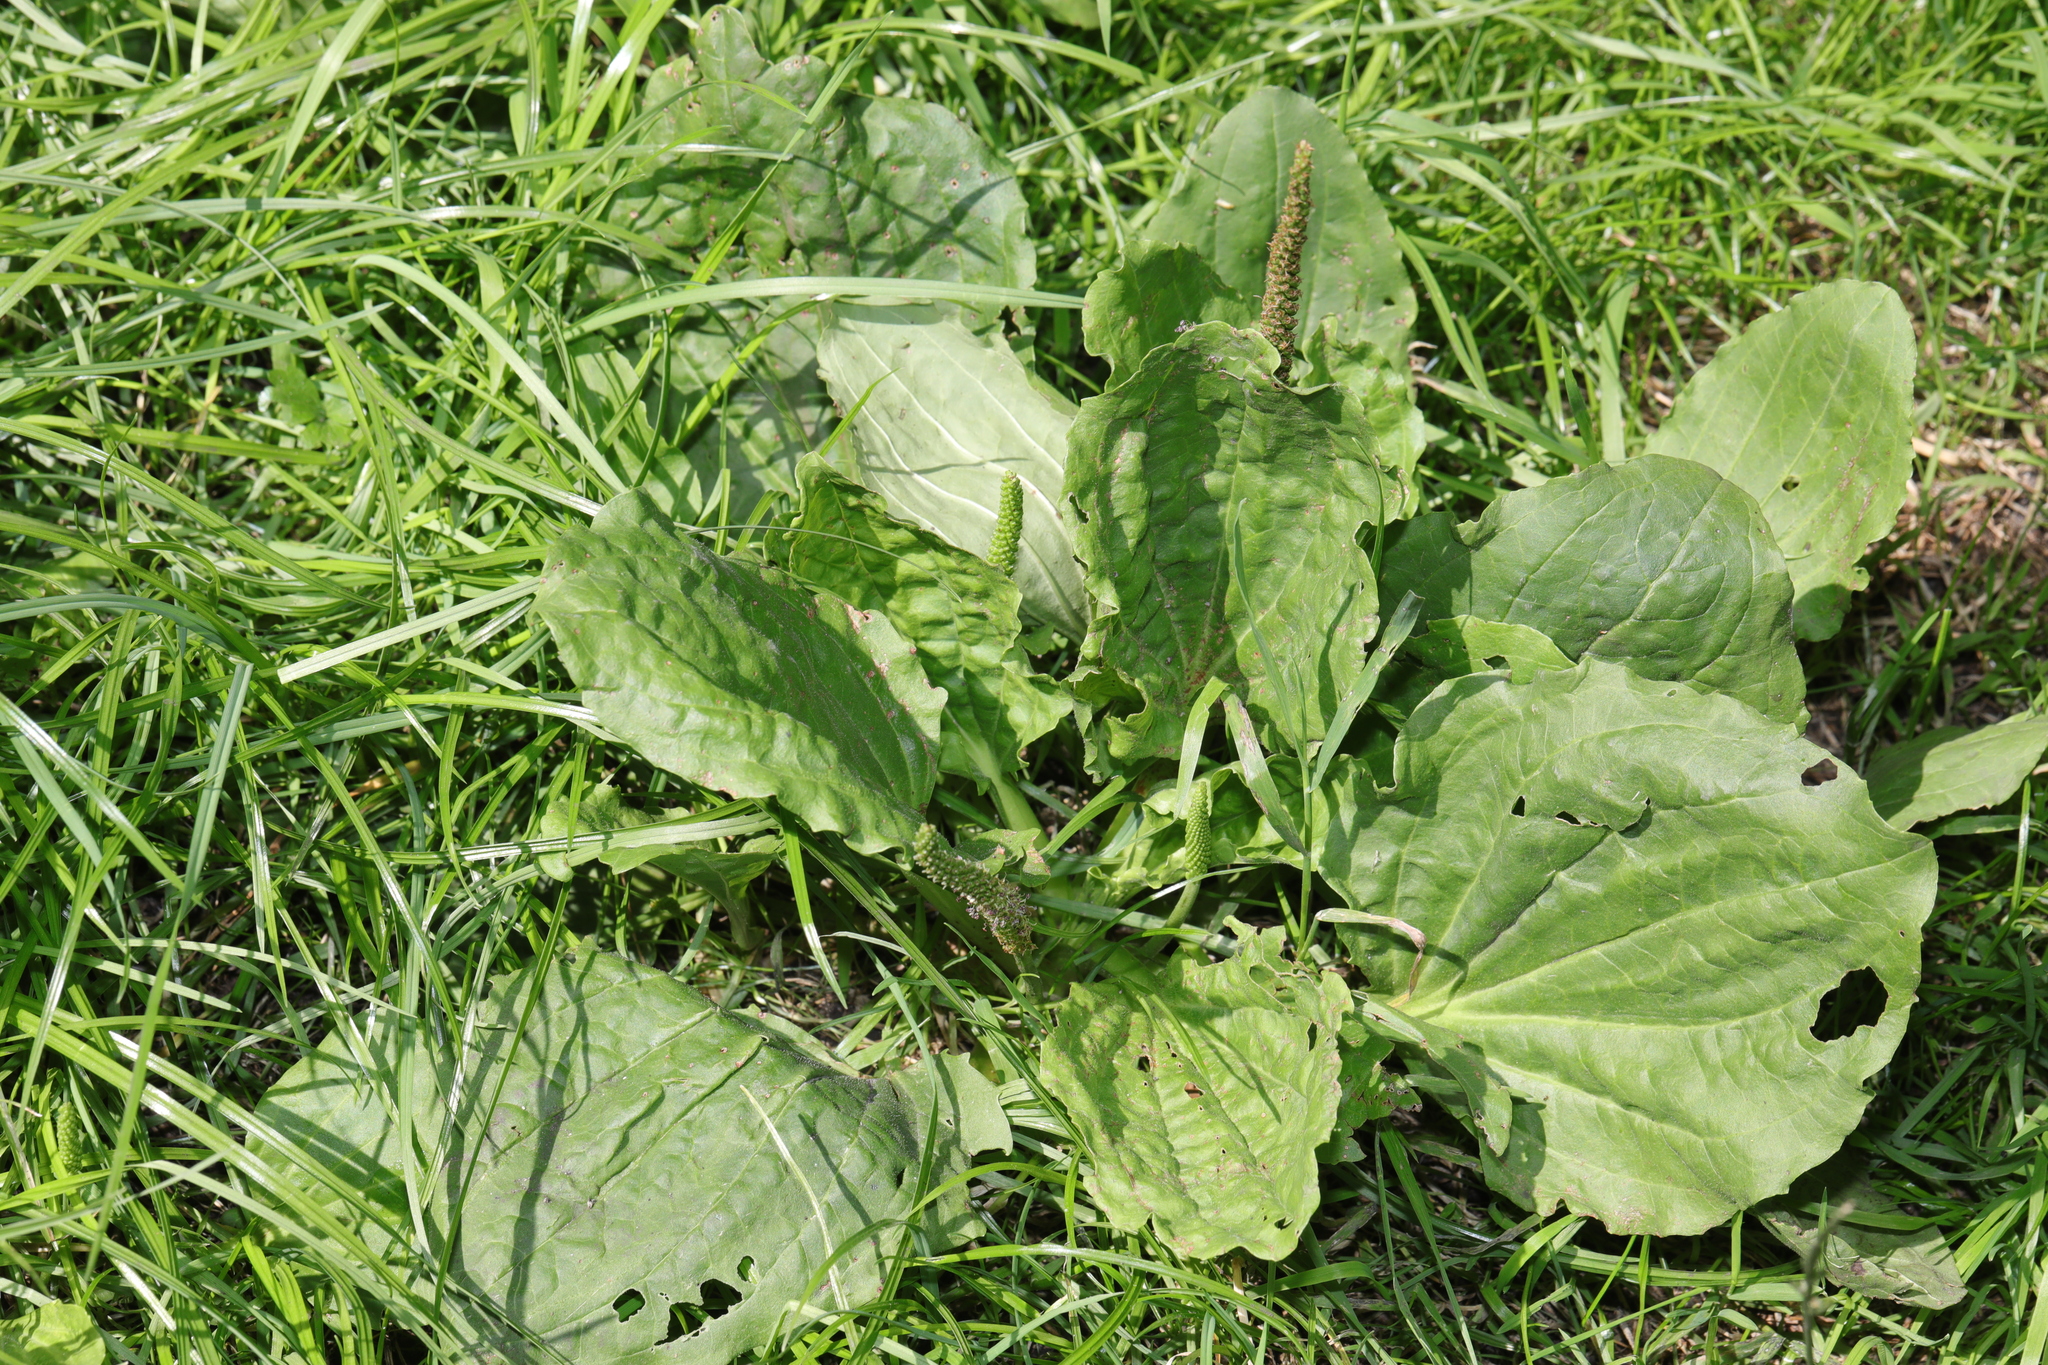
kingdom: Plantae
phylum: Tracheophyta
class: Magnoliopsida
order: Lamiales
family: Plantaginaceae
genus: Plantago
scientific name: Plantago major
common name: Common plantain
